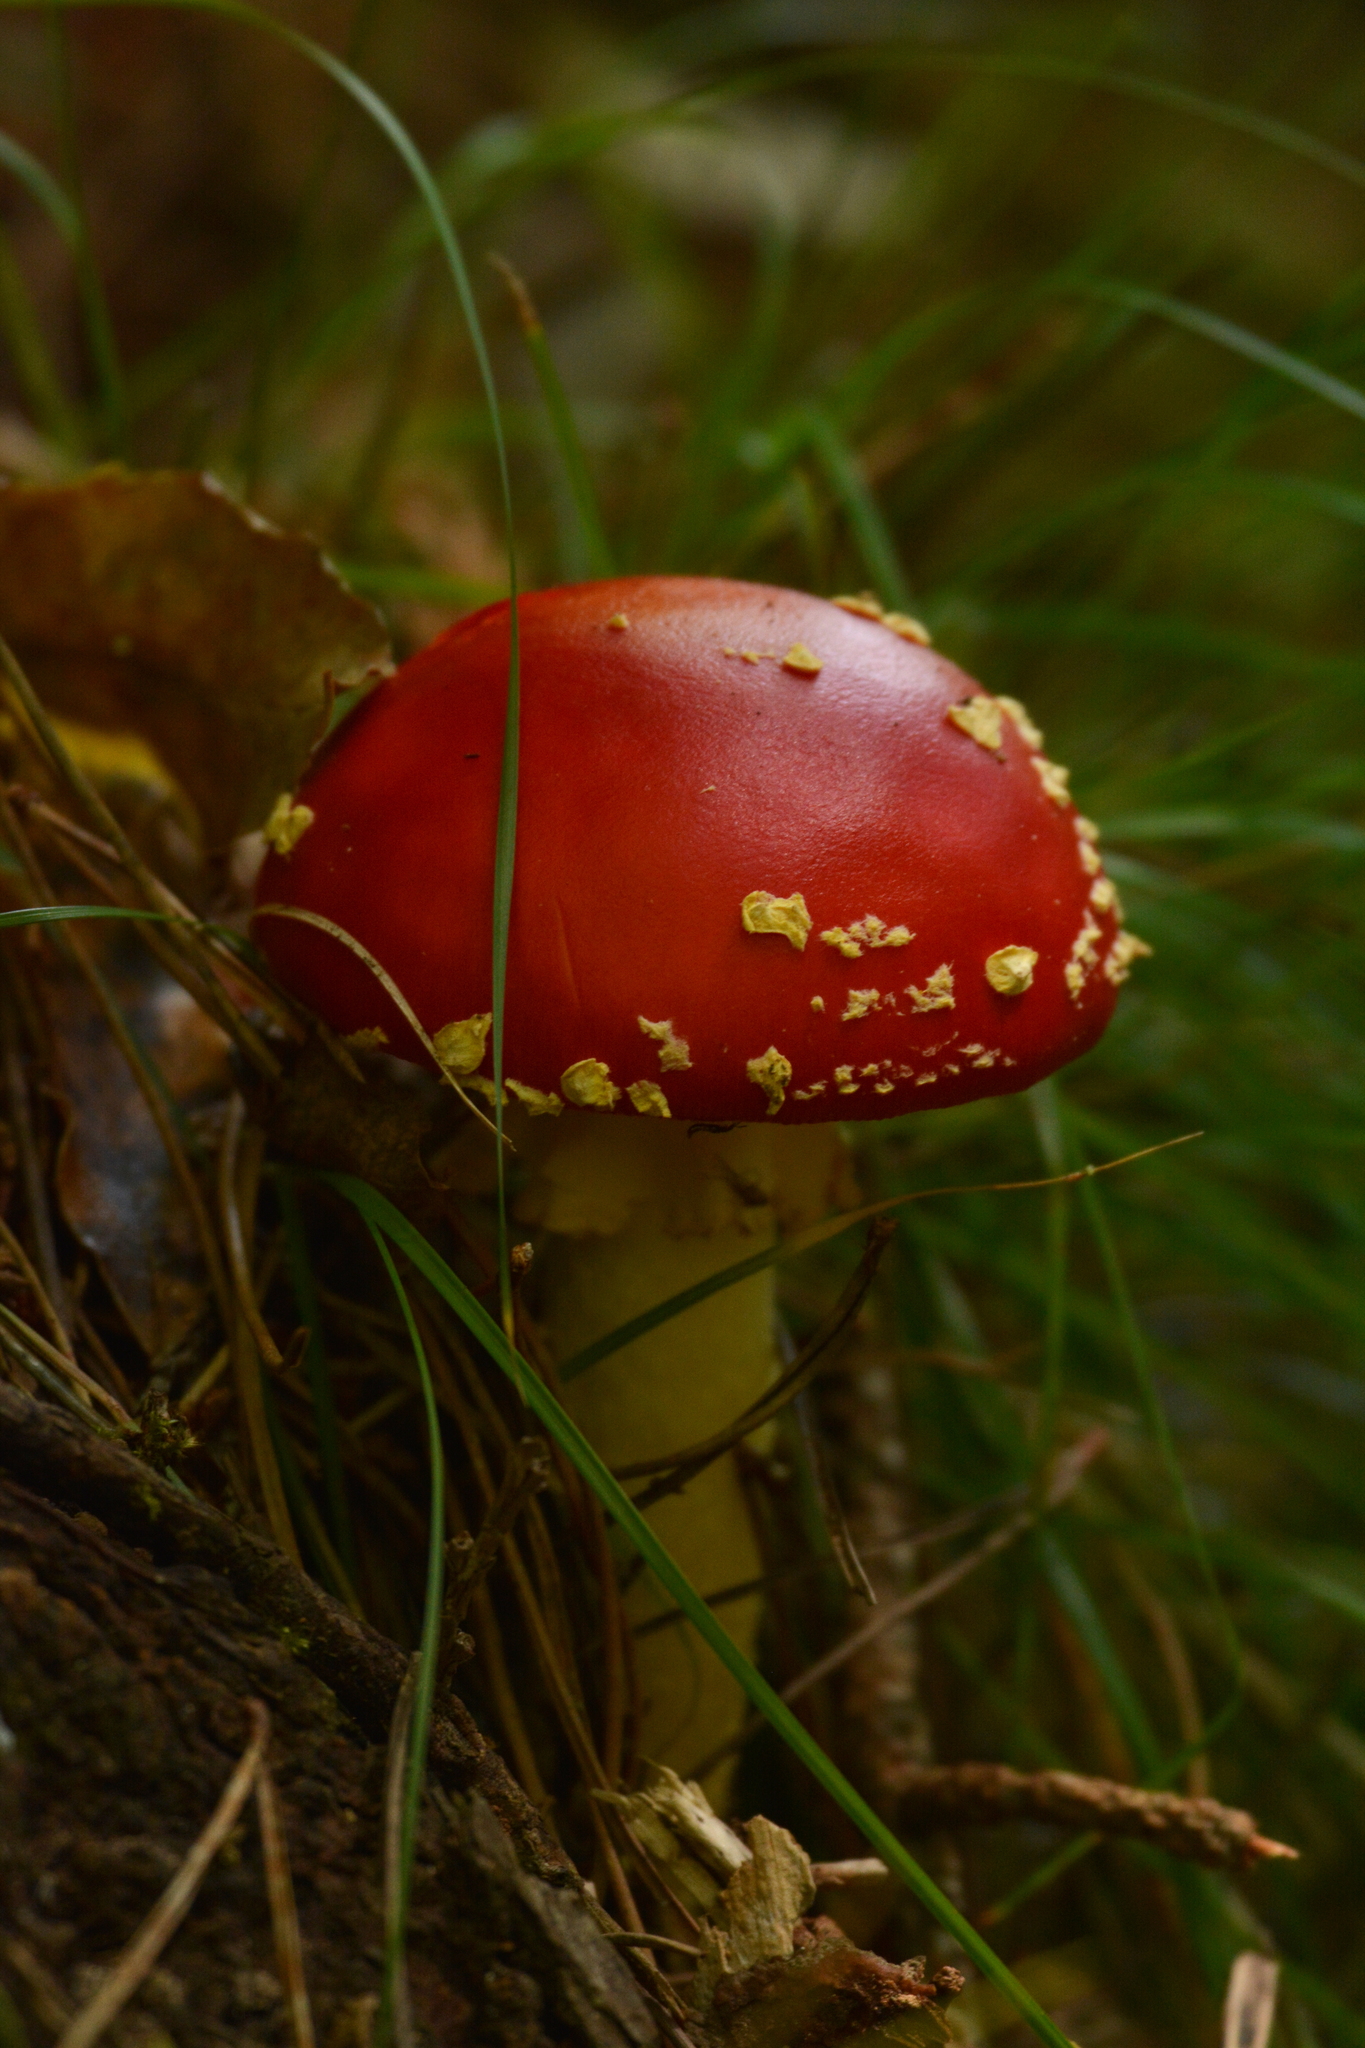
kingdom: Fungi
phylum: Basidiomycota
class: Agaricomycetes
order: Agaricales
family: Amanitaceae
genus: Amanita
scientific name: Amanita muscaria
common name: Fly agaric
